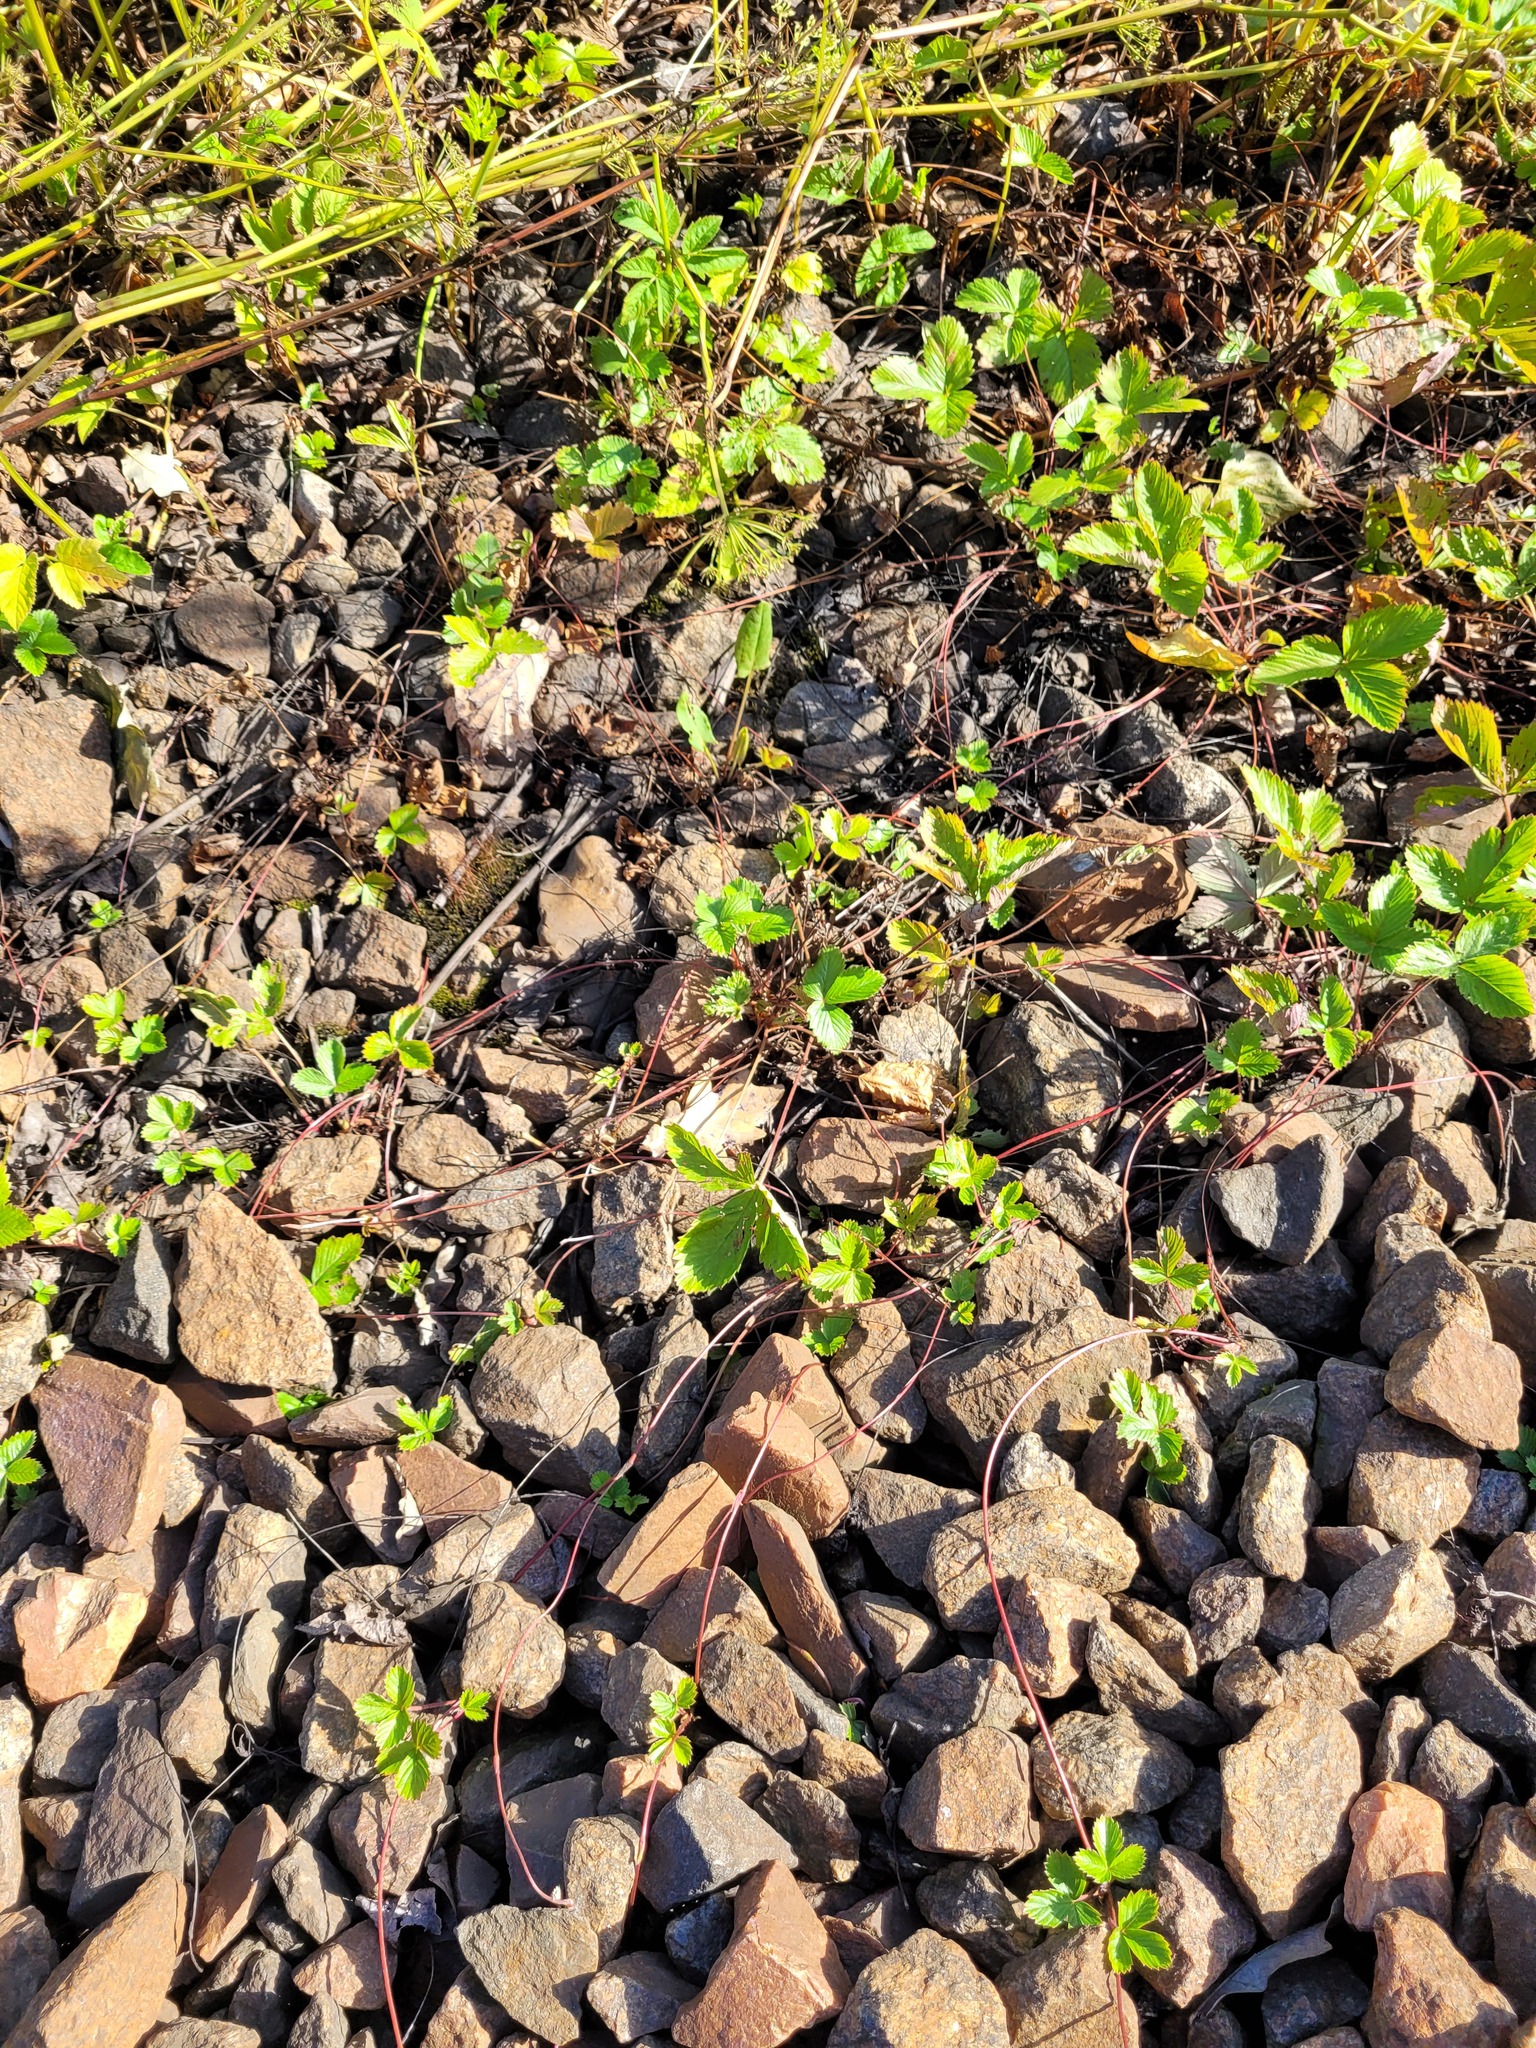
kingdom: Plantae
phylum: Tracheophyta
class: Magnoliopsida
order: Rosales
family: Rosaceae
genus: Fragaria
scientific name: Fragaria vesca
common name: Wild strawberry
